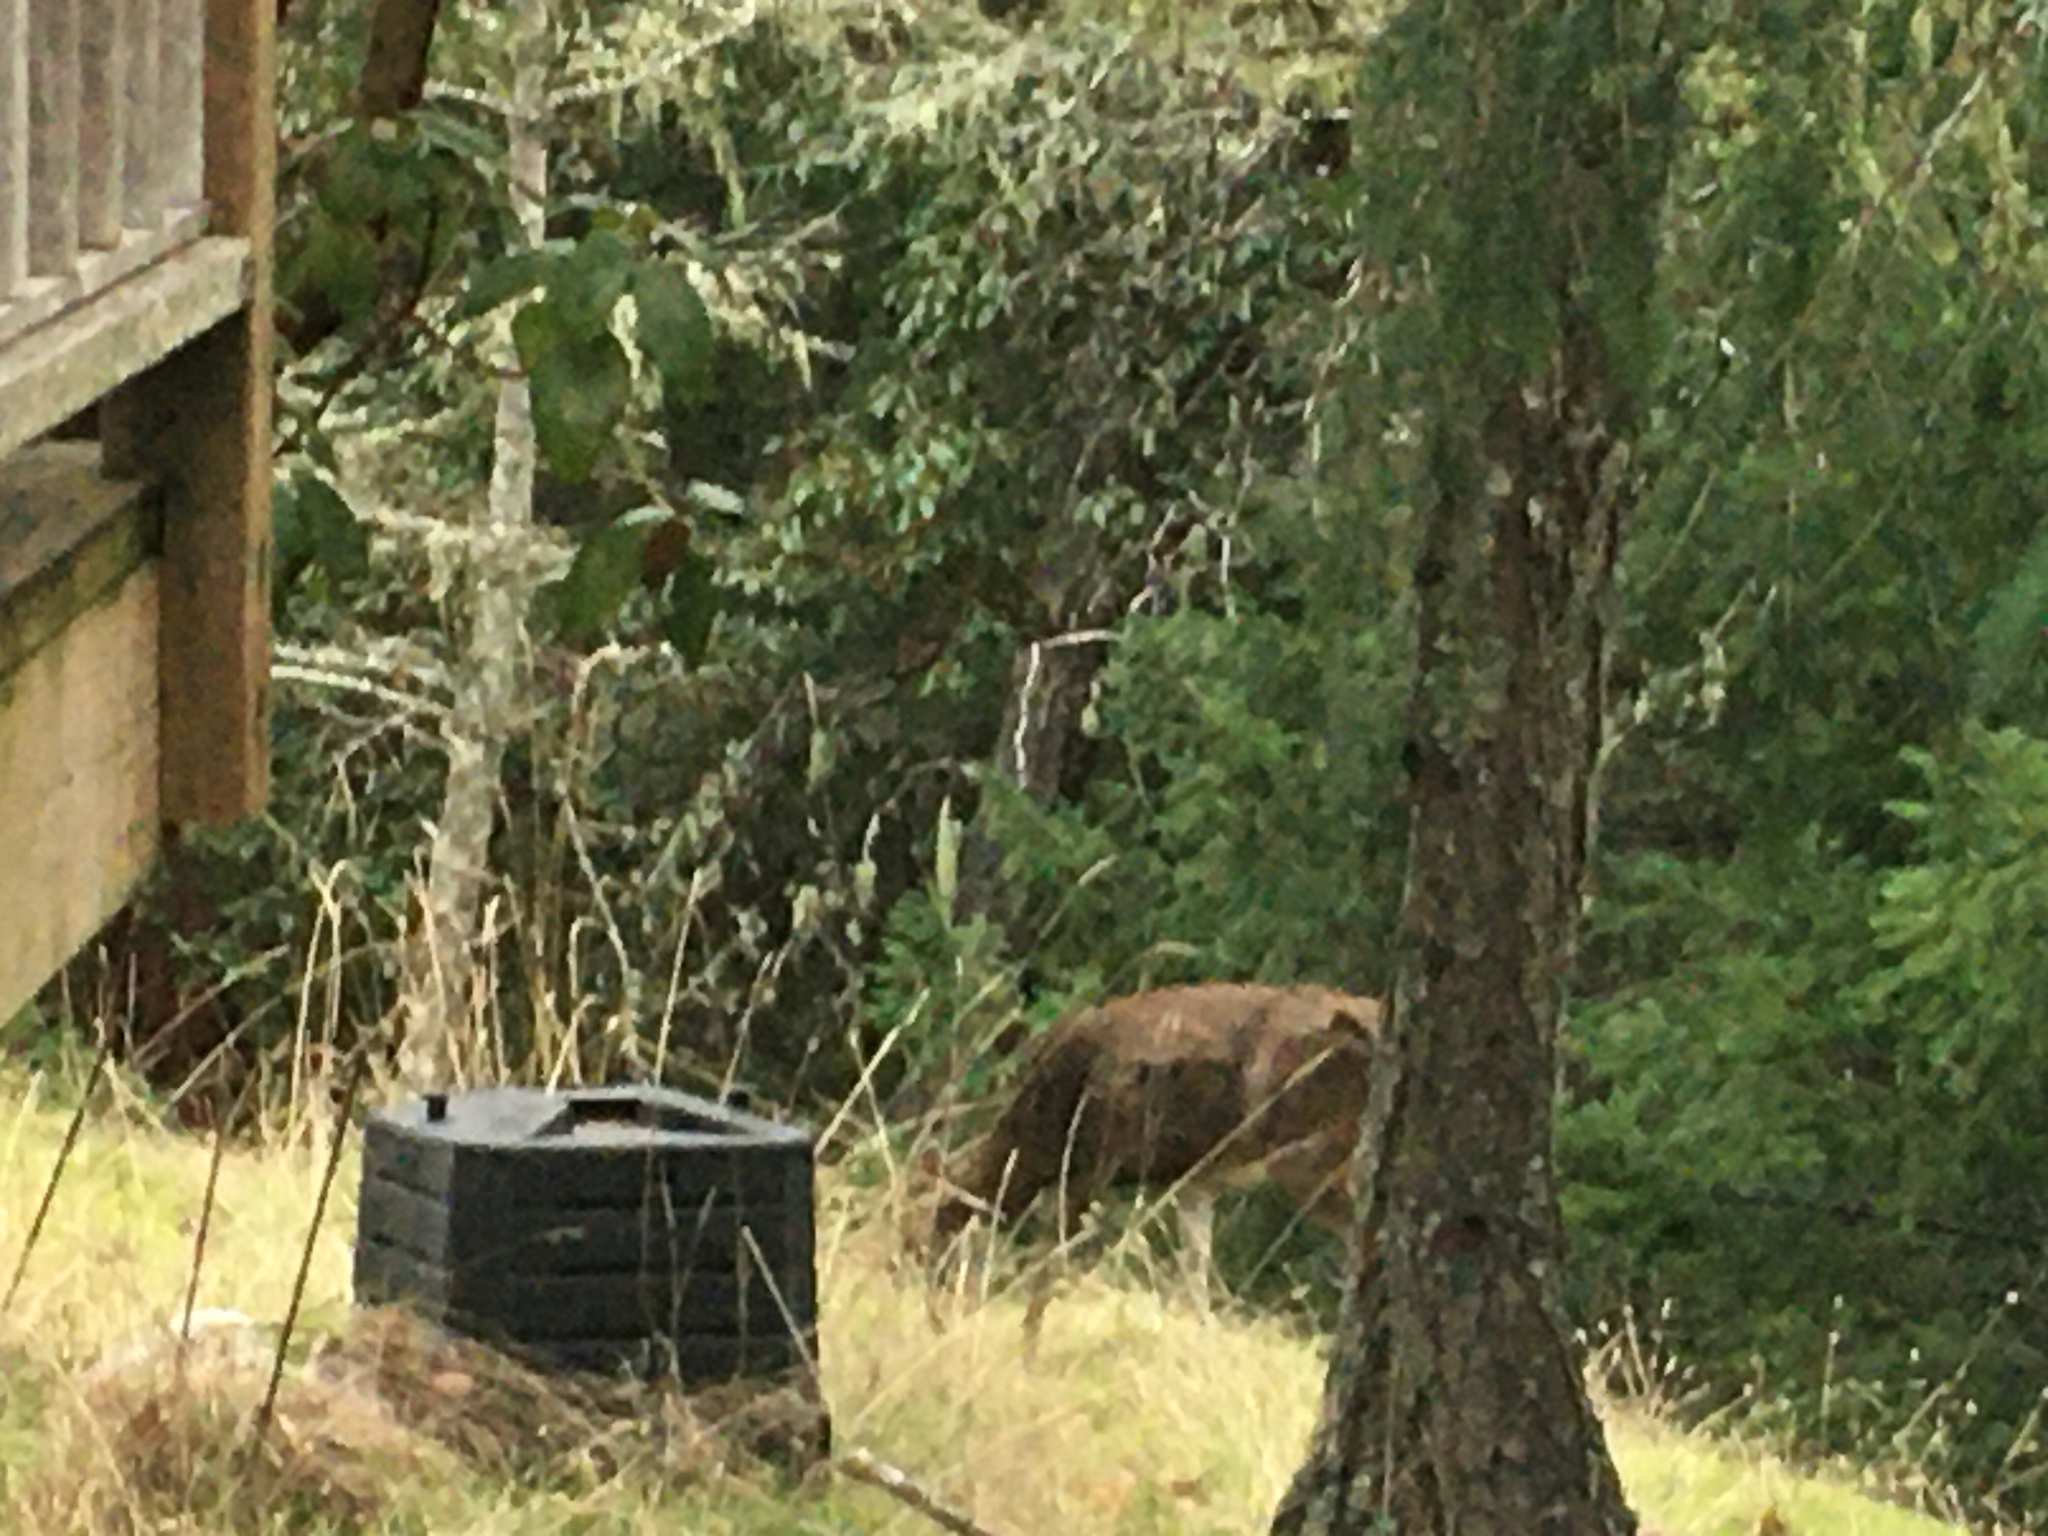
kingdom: Animalia
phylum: Chordata
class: Mammalia
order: Artiodactyla
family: Cervidae
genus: Odocoileus
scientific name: Odocoileus hemionus
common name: Mule deer
